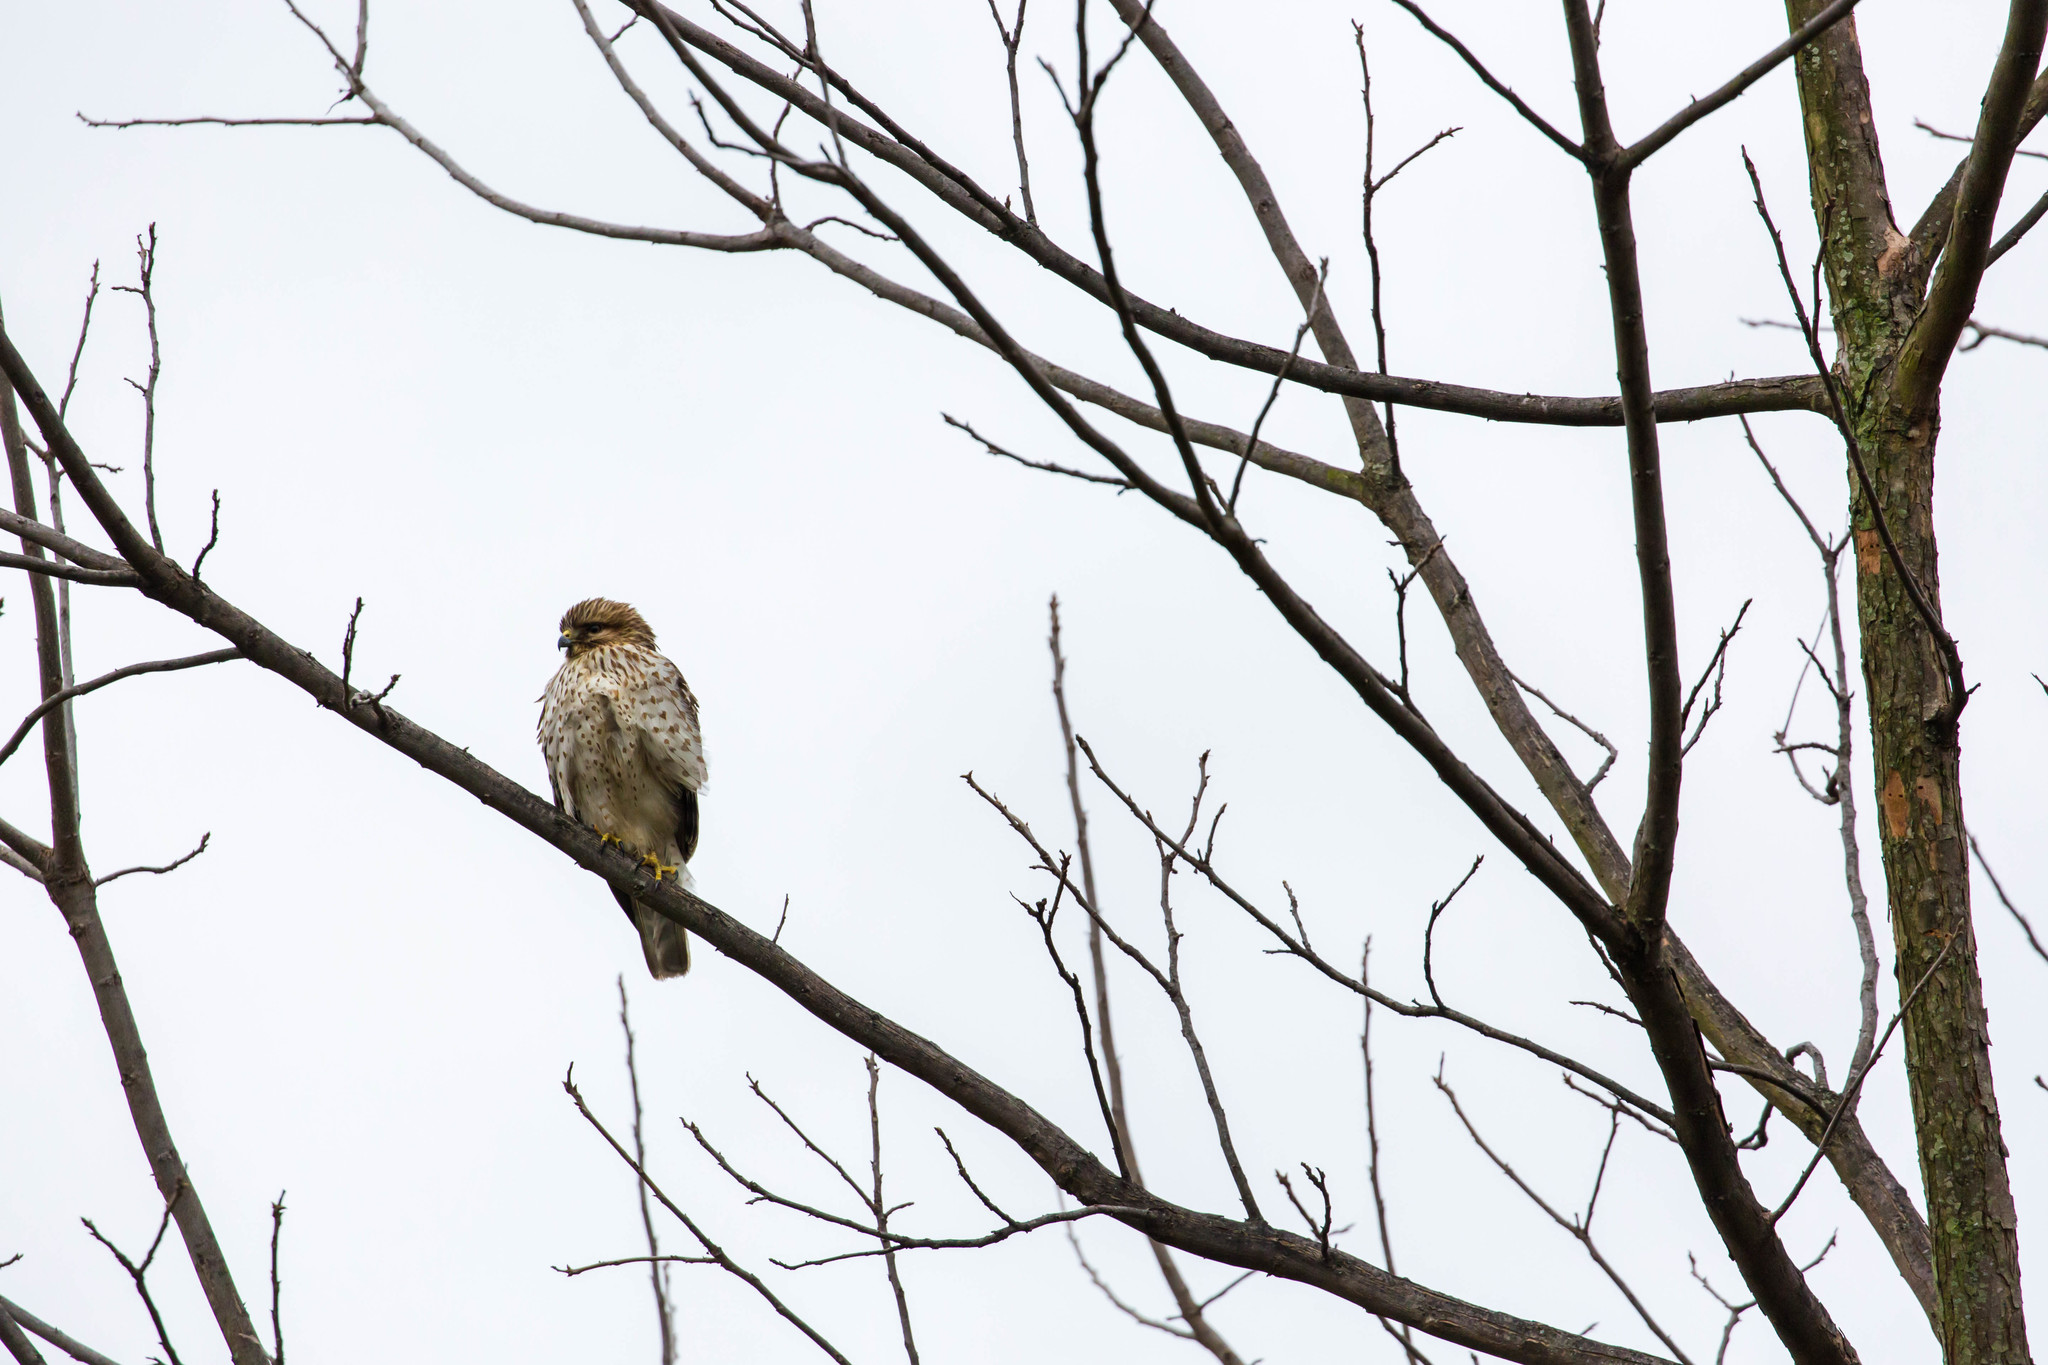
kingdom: Animalia
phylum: Chordata
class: Aves
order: Accipitriformes
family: Accipitridae
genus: Buteo
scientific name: Buteo lineatus
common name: Red-shouldered hawk
